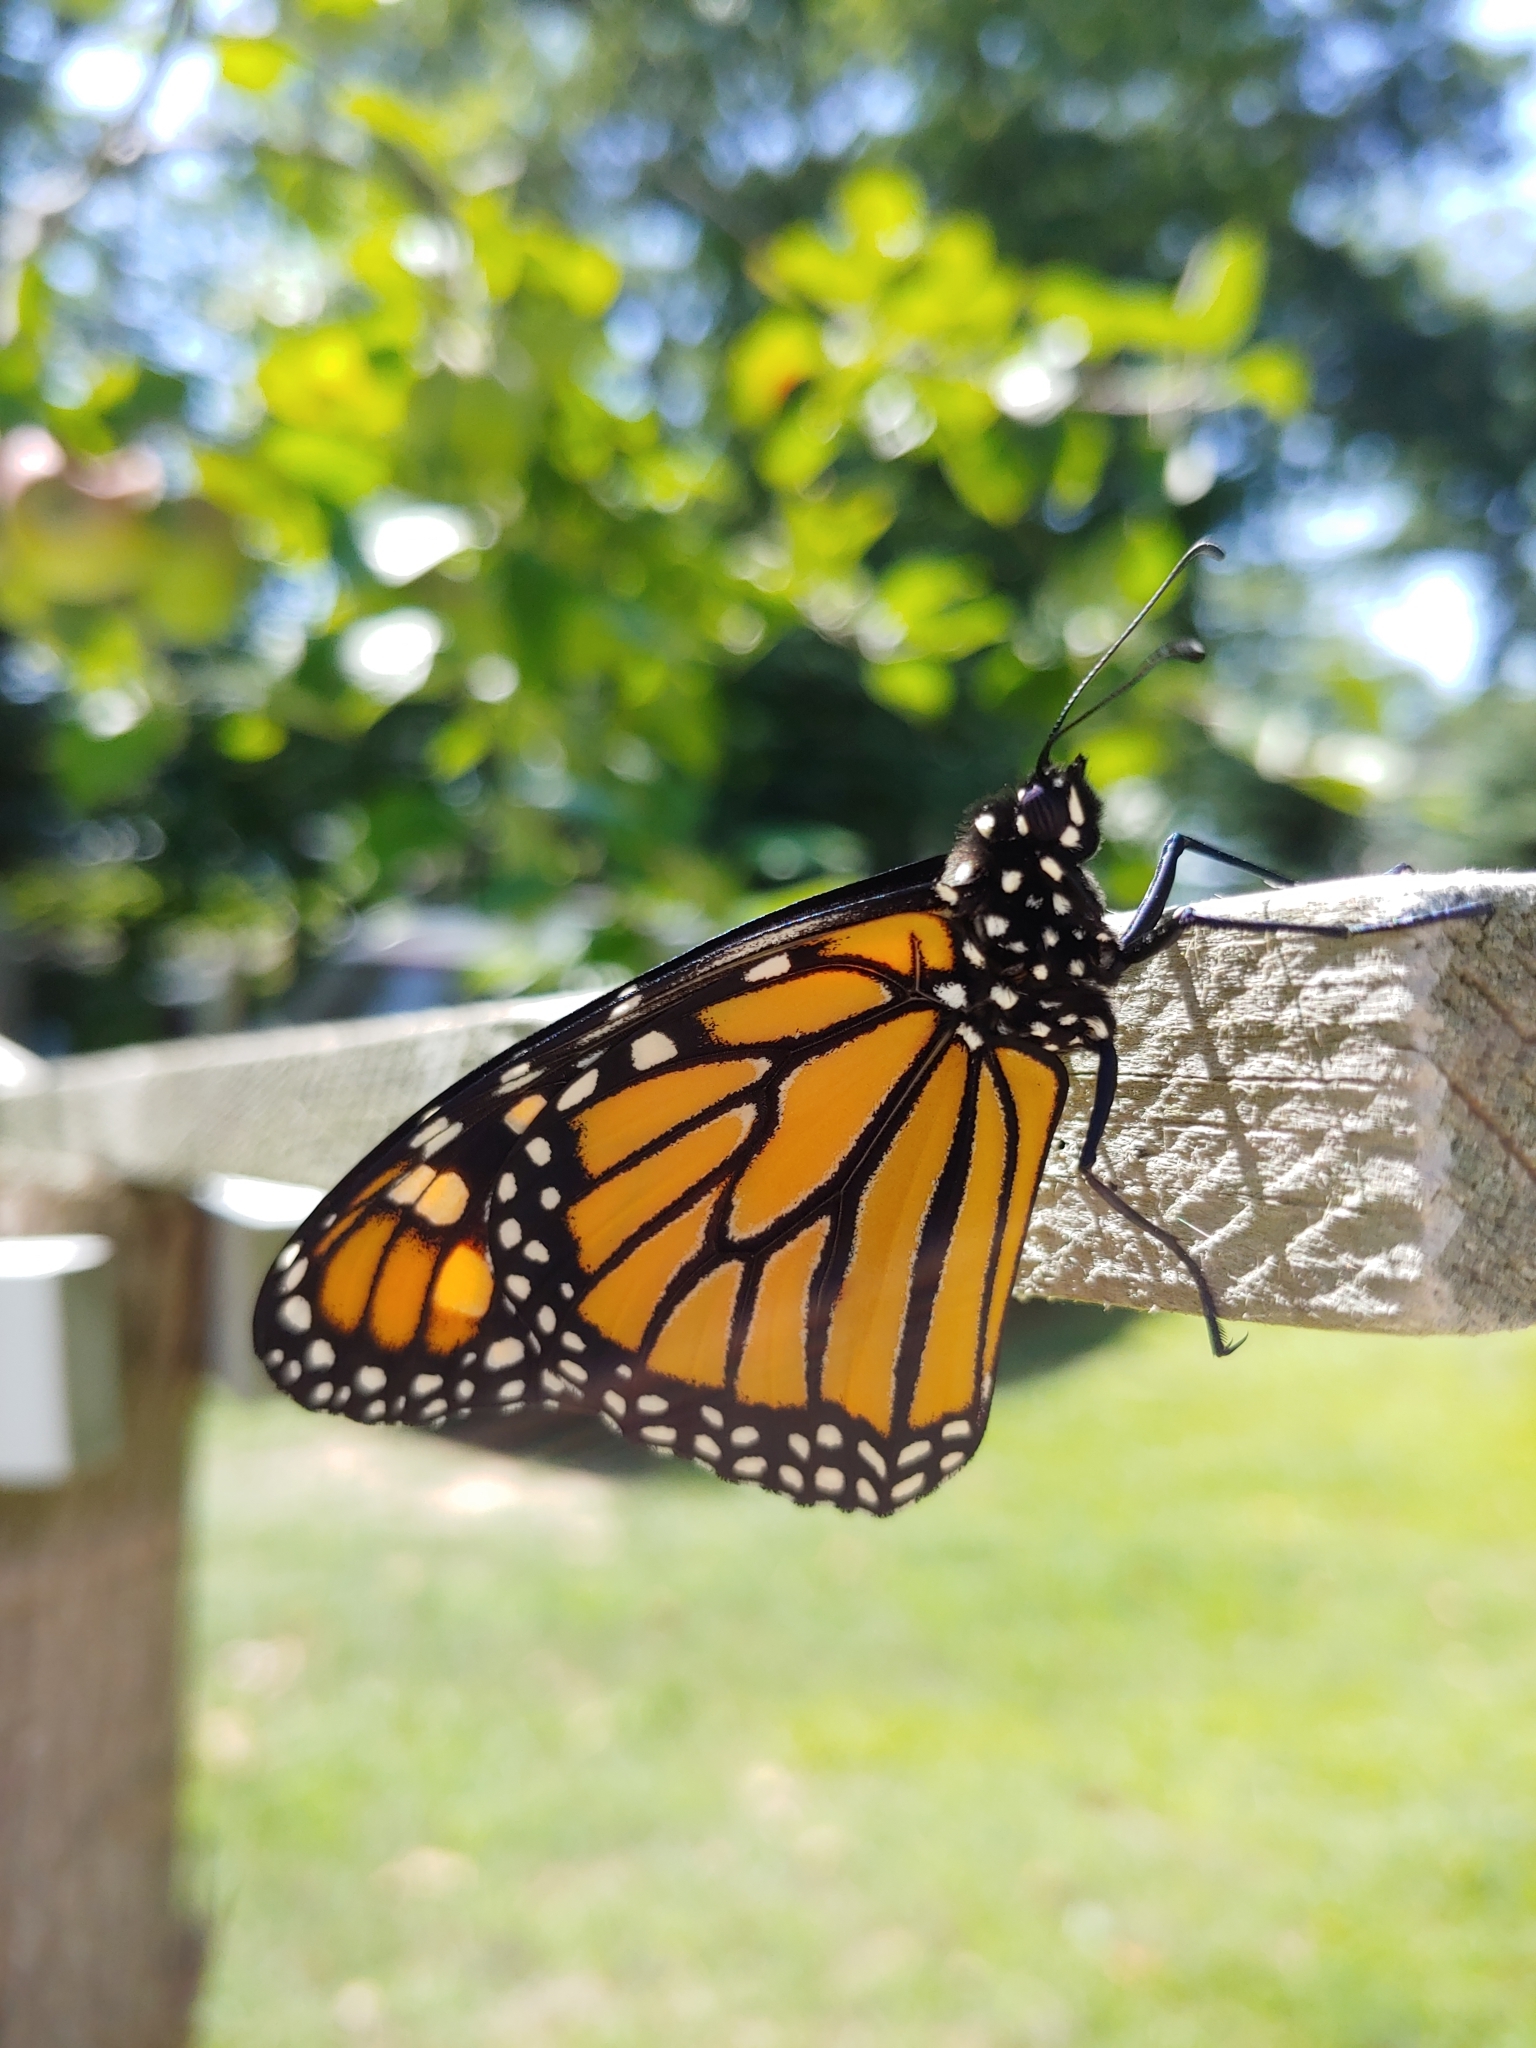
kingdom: Animalia
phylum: Arthropoda
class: Insecta
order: Lepidoptera
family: Nymphalidae
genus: Danaus
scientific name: Danaus plexippus
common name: Monarch
